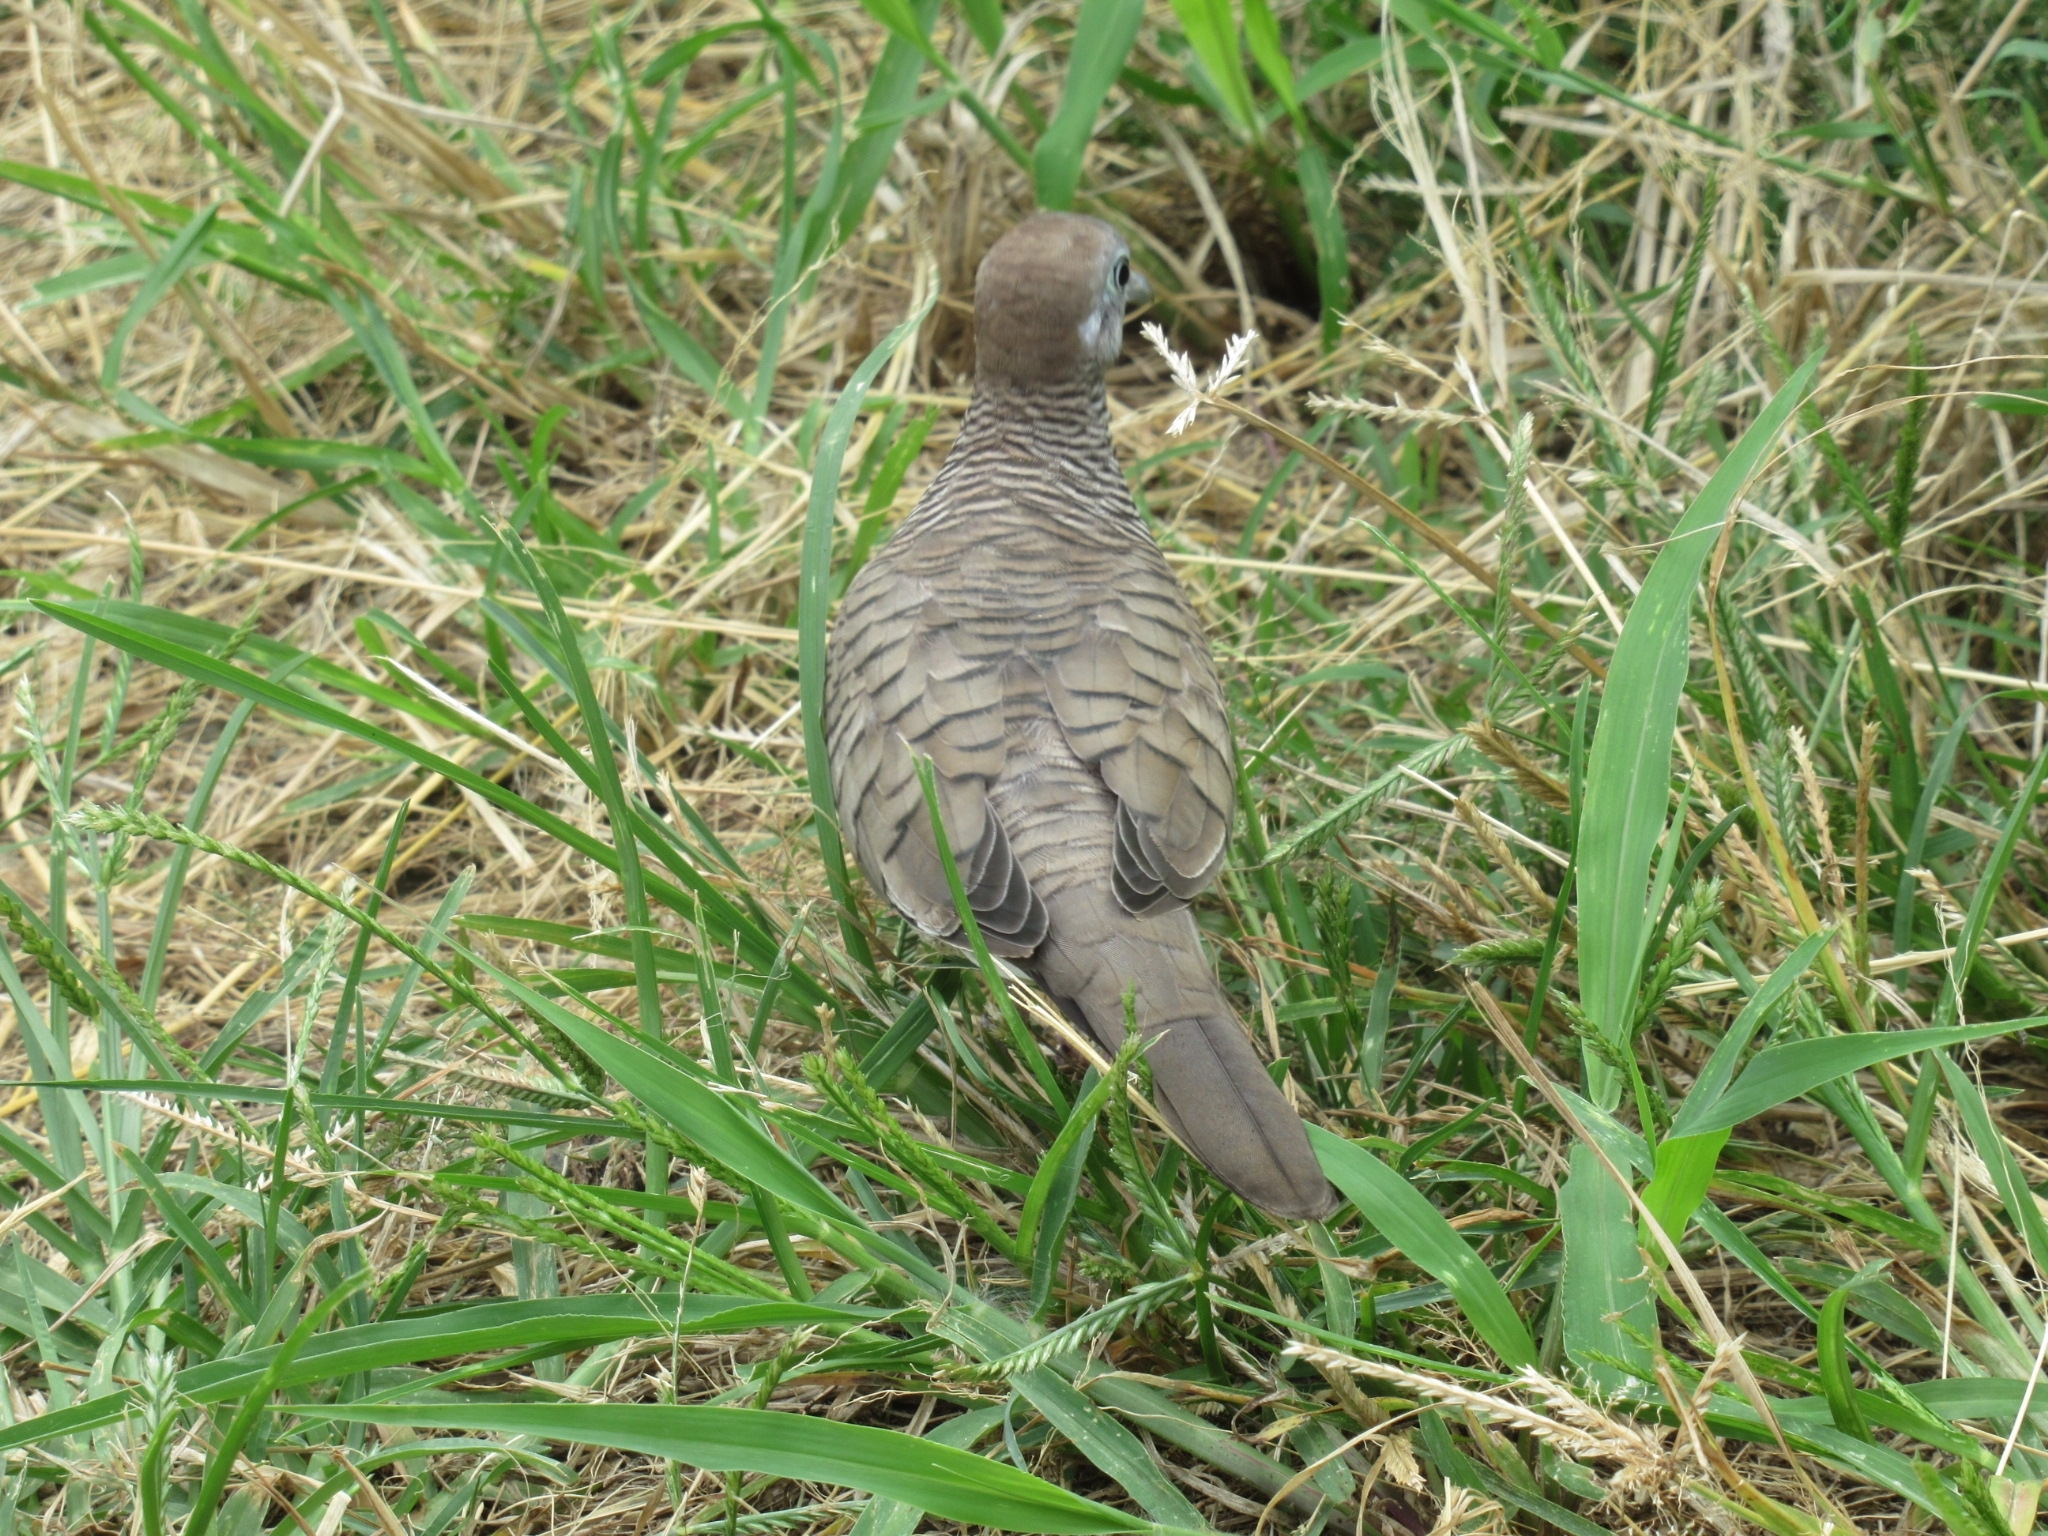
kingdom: Animalia
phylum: Chordata
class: Aves
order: Columbiformes
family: Columbidae
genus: Geopelia
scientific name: Geopelia striata
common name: Zebra dove
